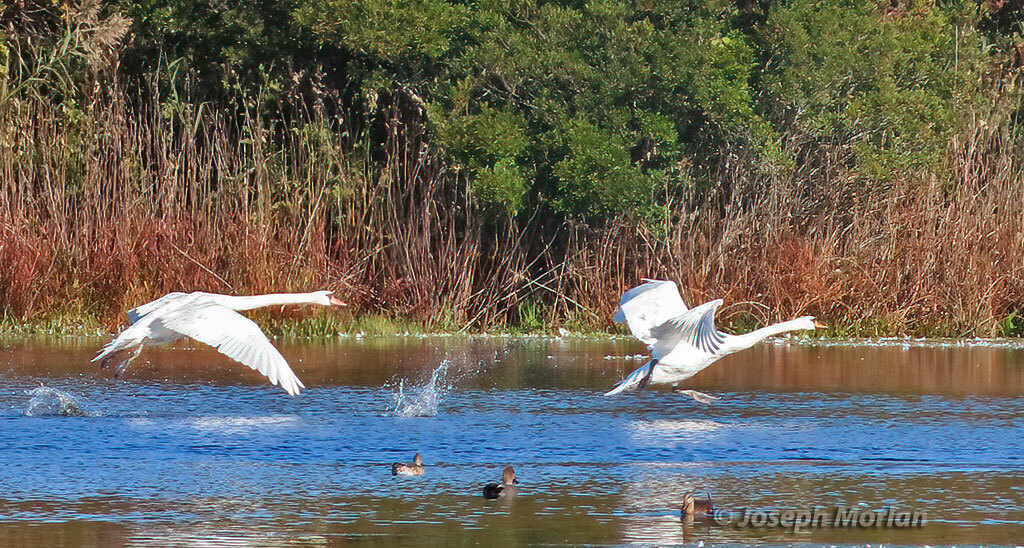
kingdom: Animalia
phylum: Chordata
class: Aves
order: Anseriformes
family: Anatidae
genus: Cygnus
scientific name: Cygnus olor
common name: Mute swan
